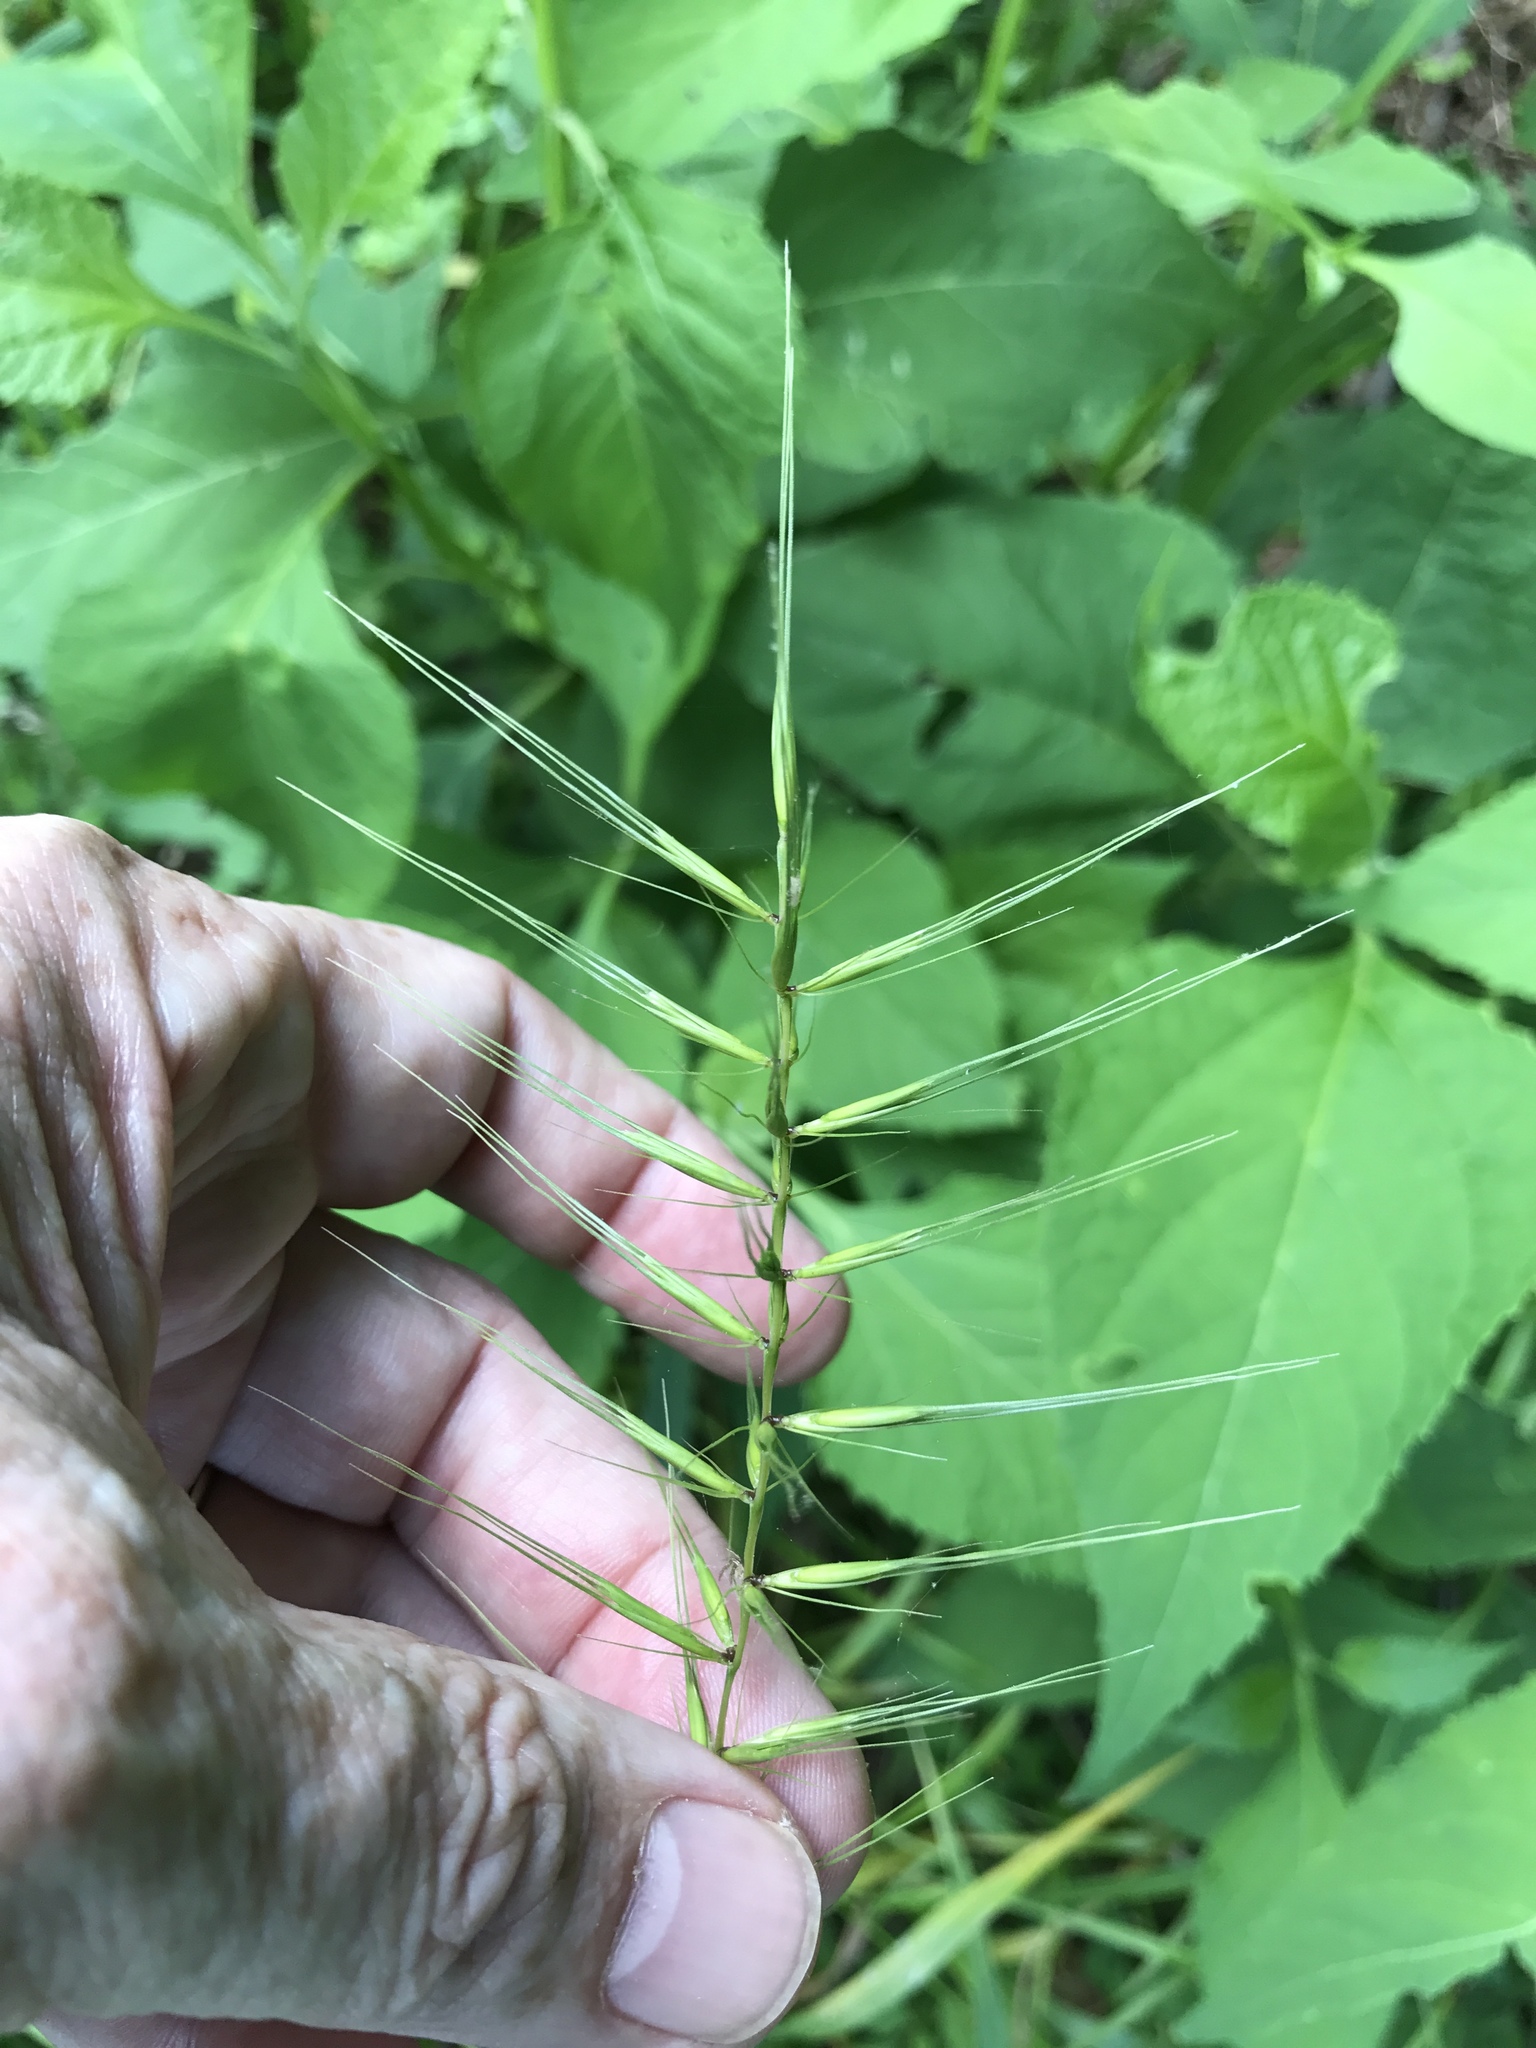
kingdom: Plantae
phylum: Tracheophyta
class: Liliopsida
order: Poales
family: Poaceae
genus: Elymus
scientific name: Elymus hystrix
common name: Bottlebrush grass
